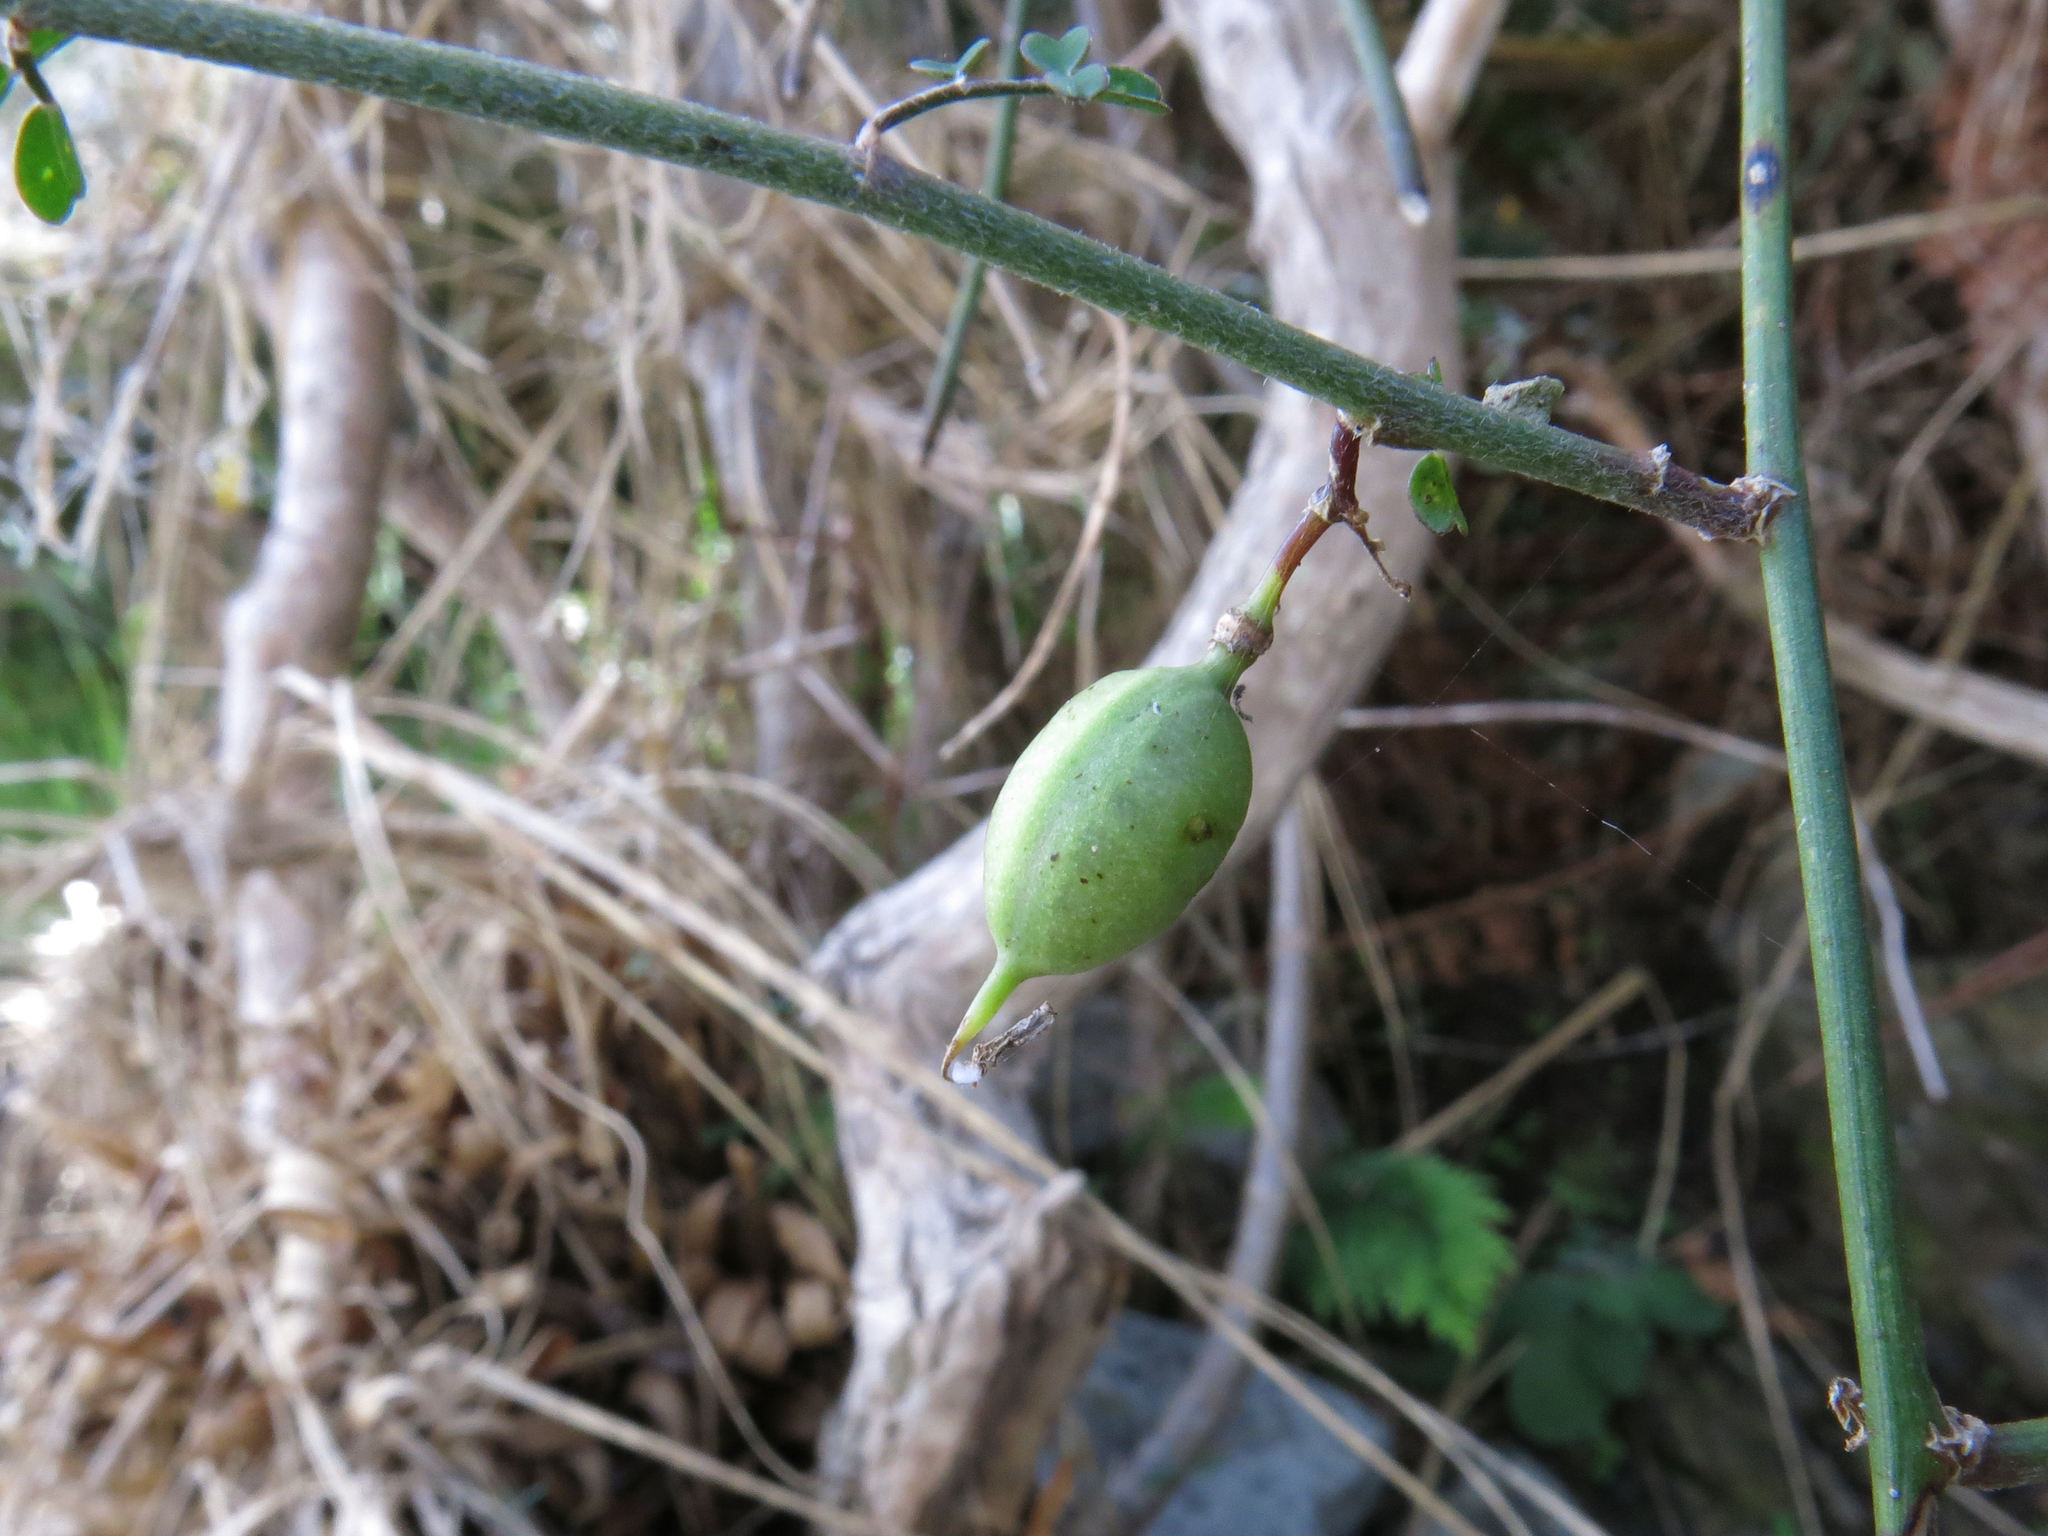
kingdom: Plantae
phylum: Tracheophyta
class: Magnoliopsida
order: Fabales
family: Fabaceae
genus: Carmichaelia
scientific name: Carmichaelia kirkii
